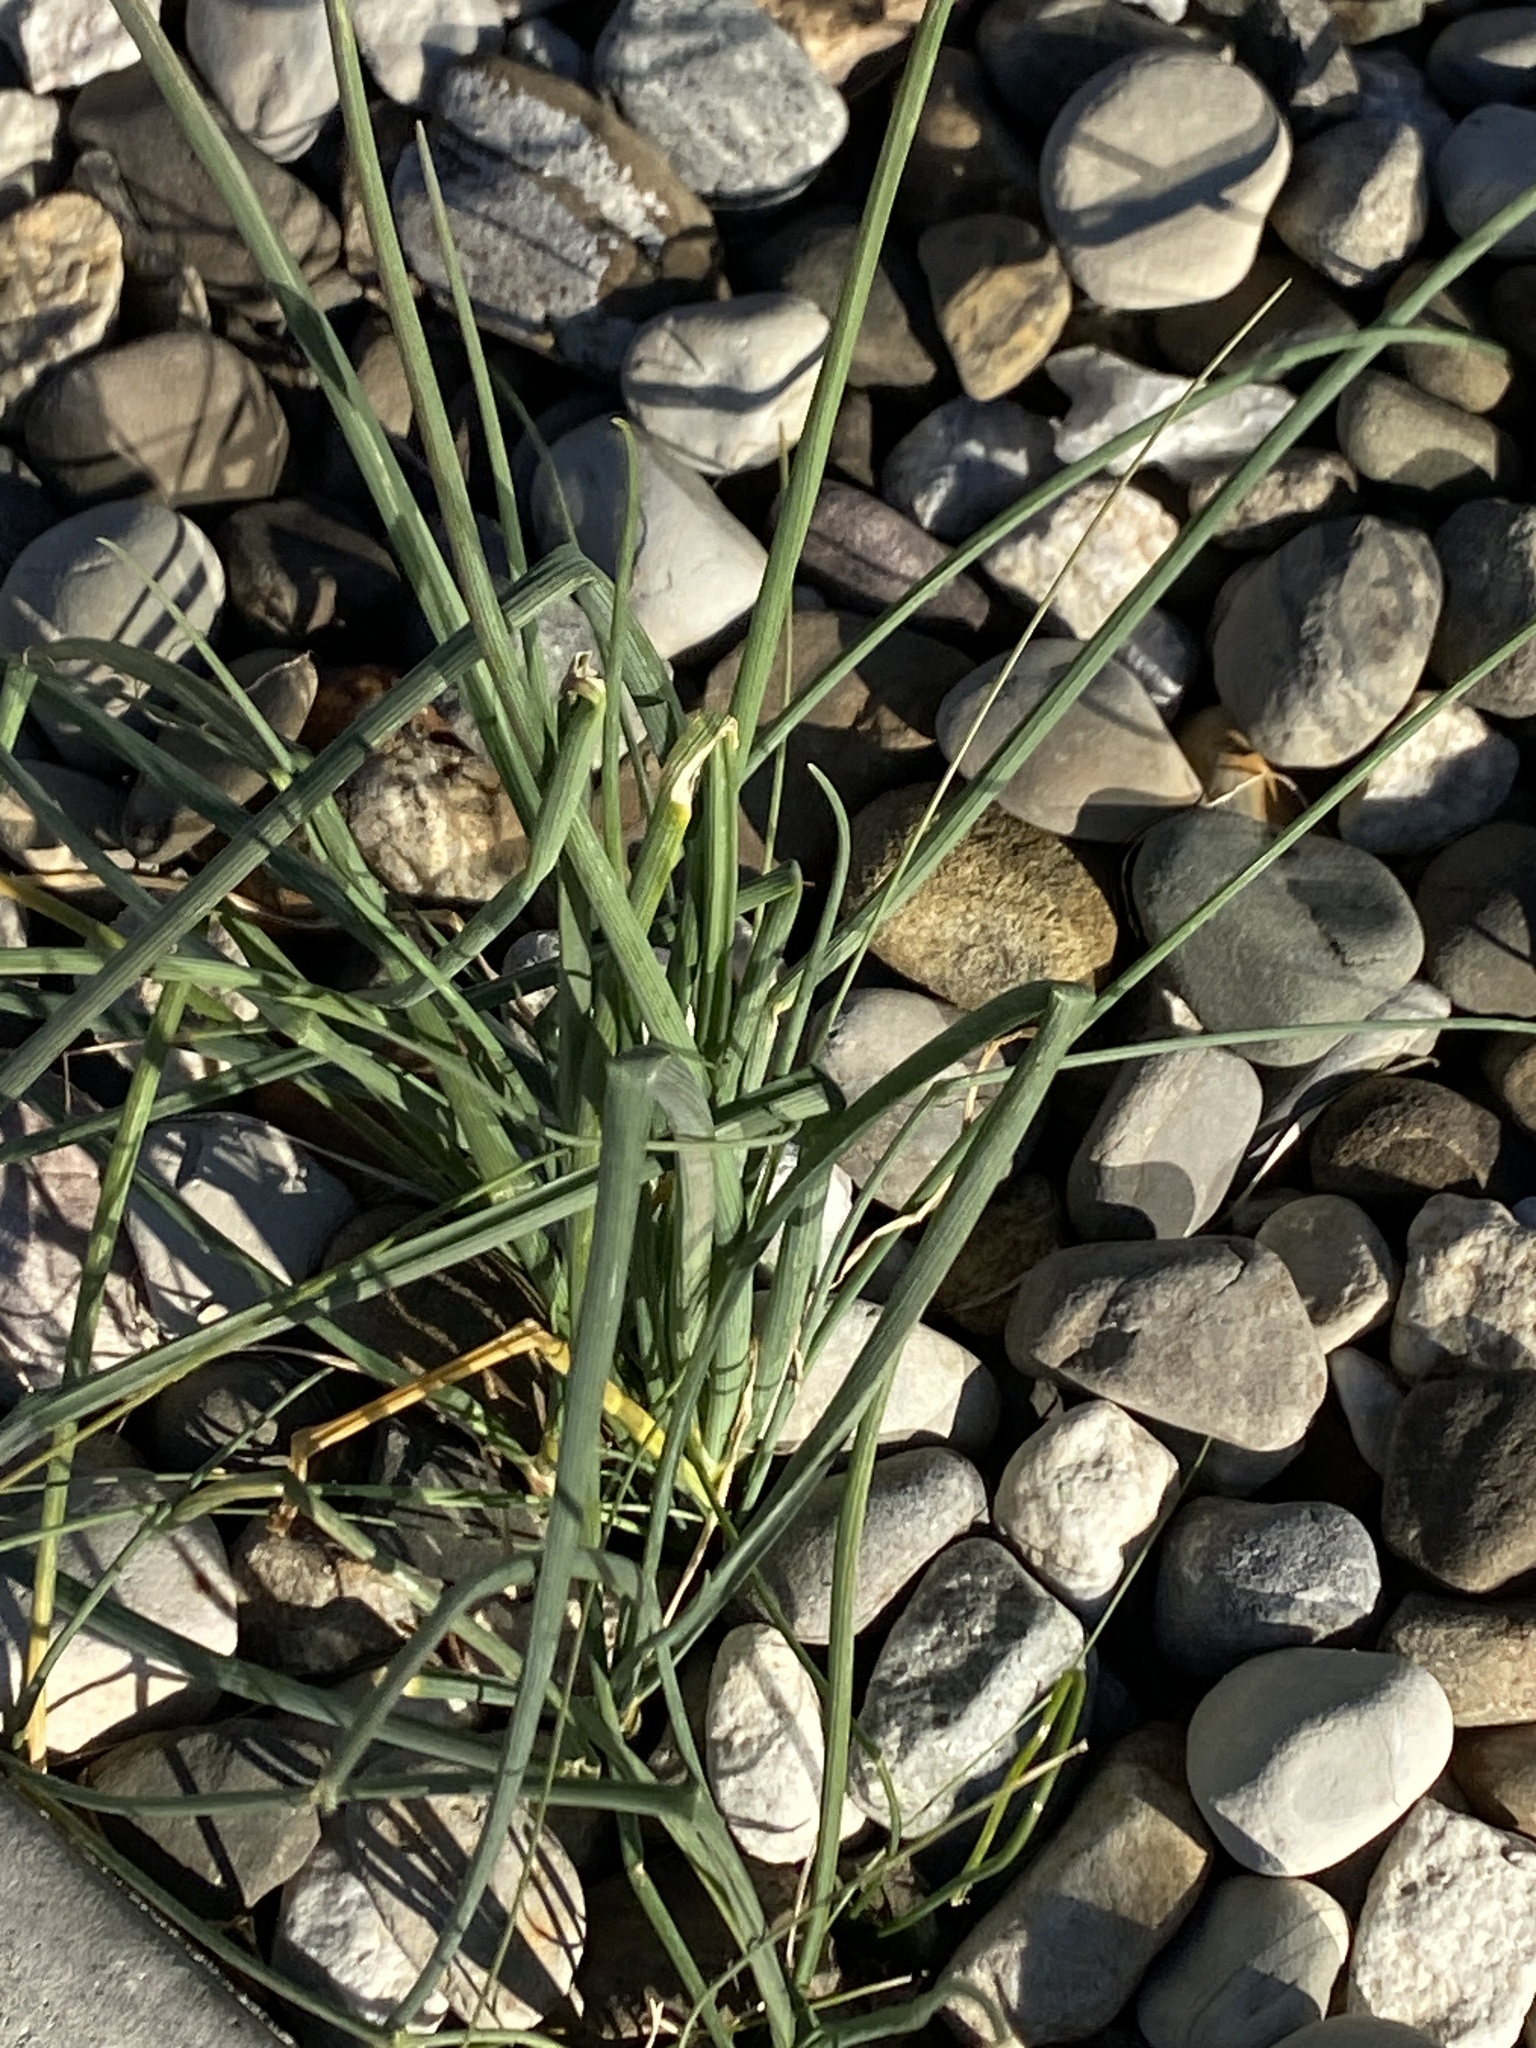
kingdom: Plantae
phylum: Tracheophyta
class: Liliopsida
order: Asparagales
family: Amaryllidaceae
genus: Allium
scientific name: Allium vineale
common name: Crow garlic
